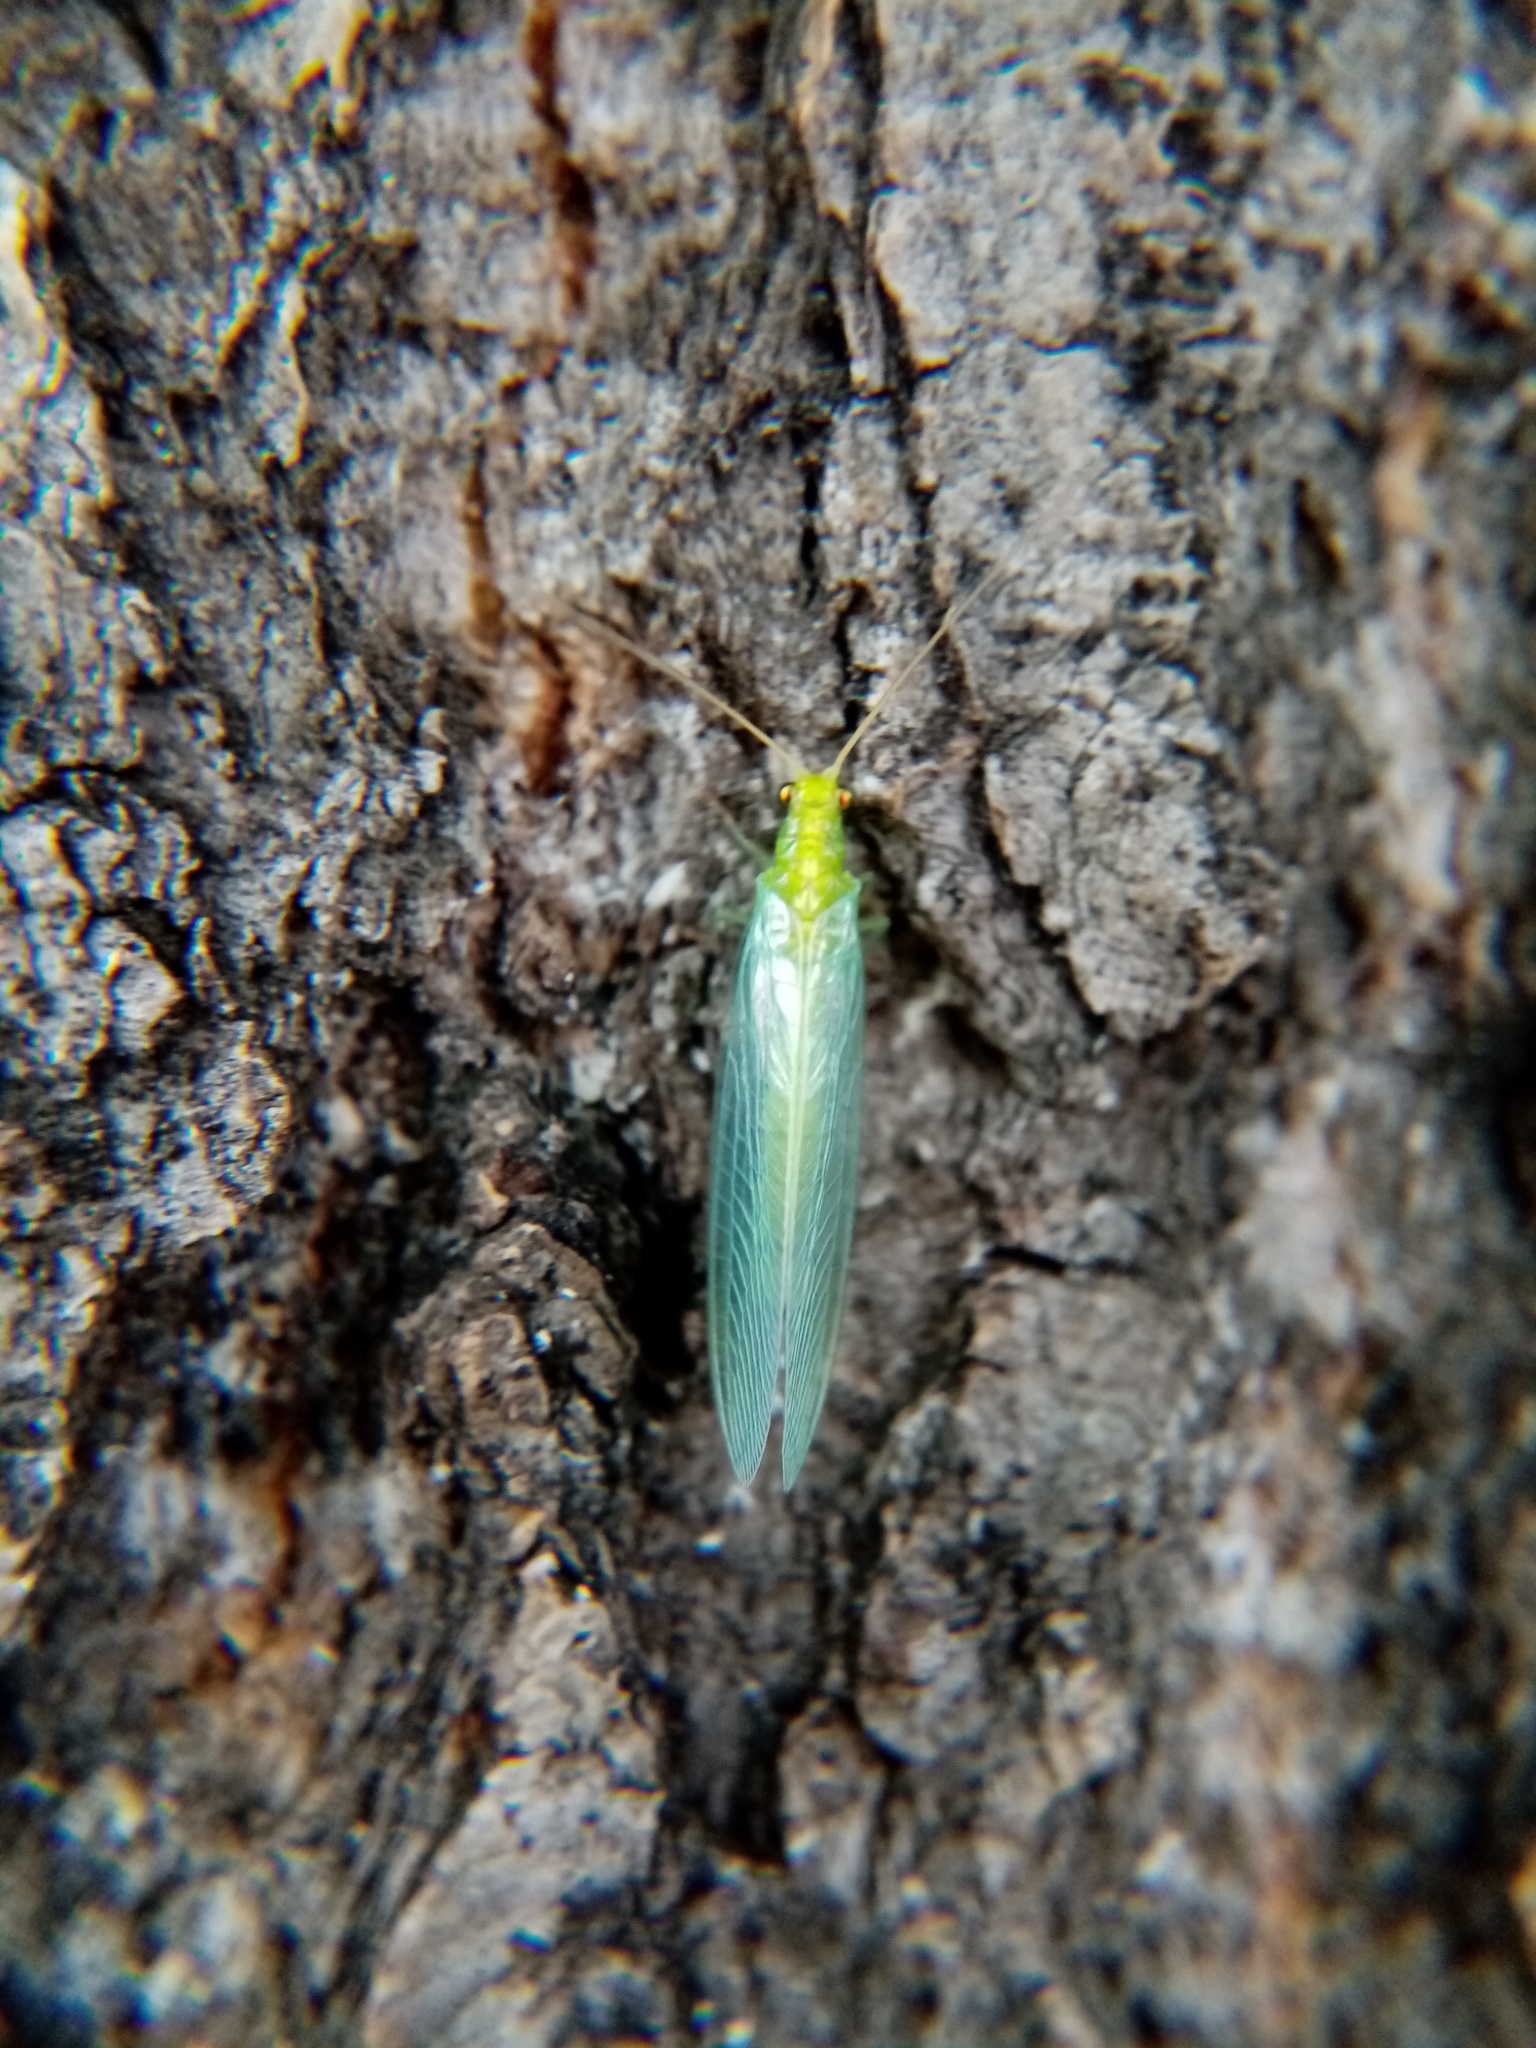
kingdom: Animalia
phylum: Arthropoda
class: Insecta
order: Neuroptera
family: Chrysopidae
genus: Chrysoperla
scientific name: Chrysoperla
